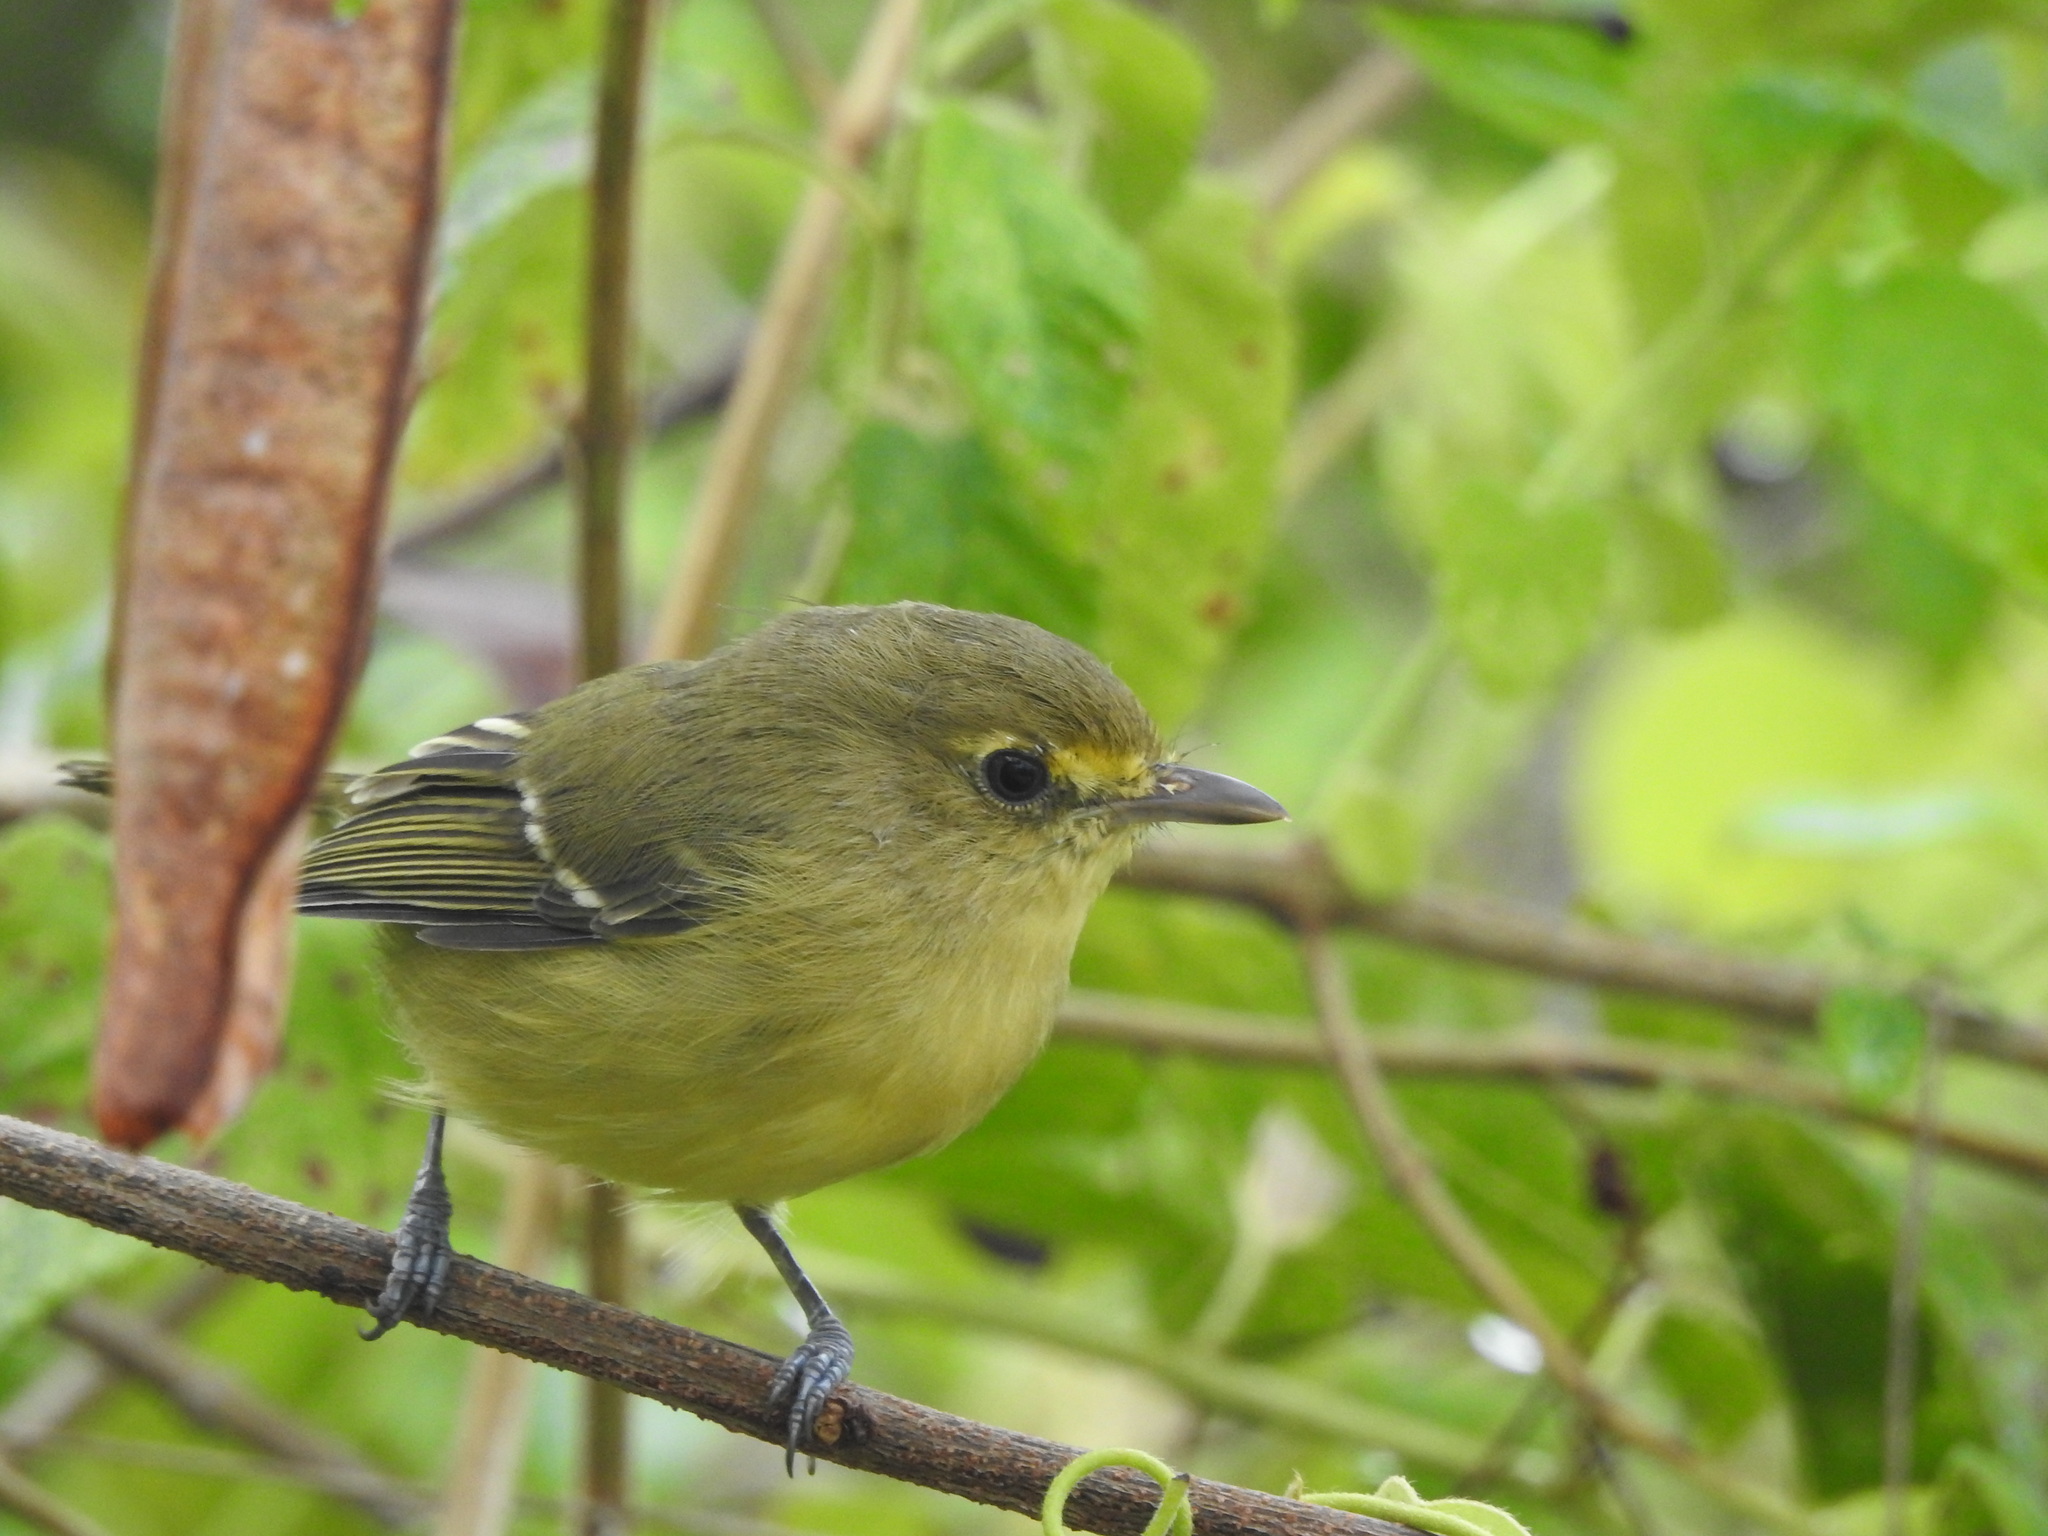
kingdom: Animalia
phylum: Chordata
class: Aves
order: Passeriformes
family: Vireonidae
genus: Vireo
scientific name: Vireo pallens
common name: Mangrove vireo
